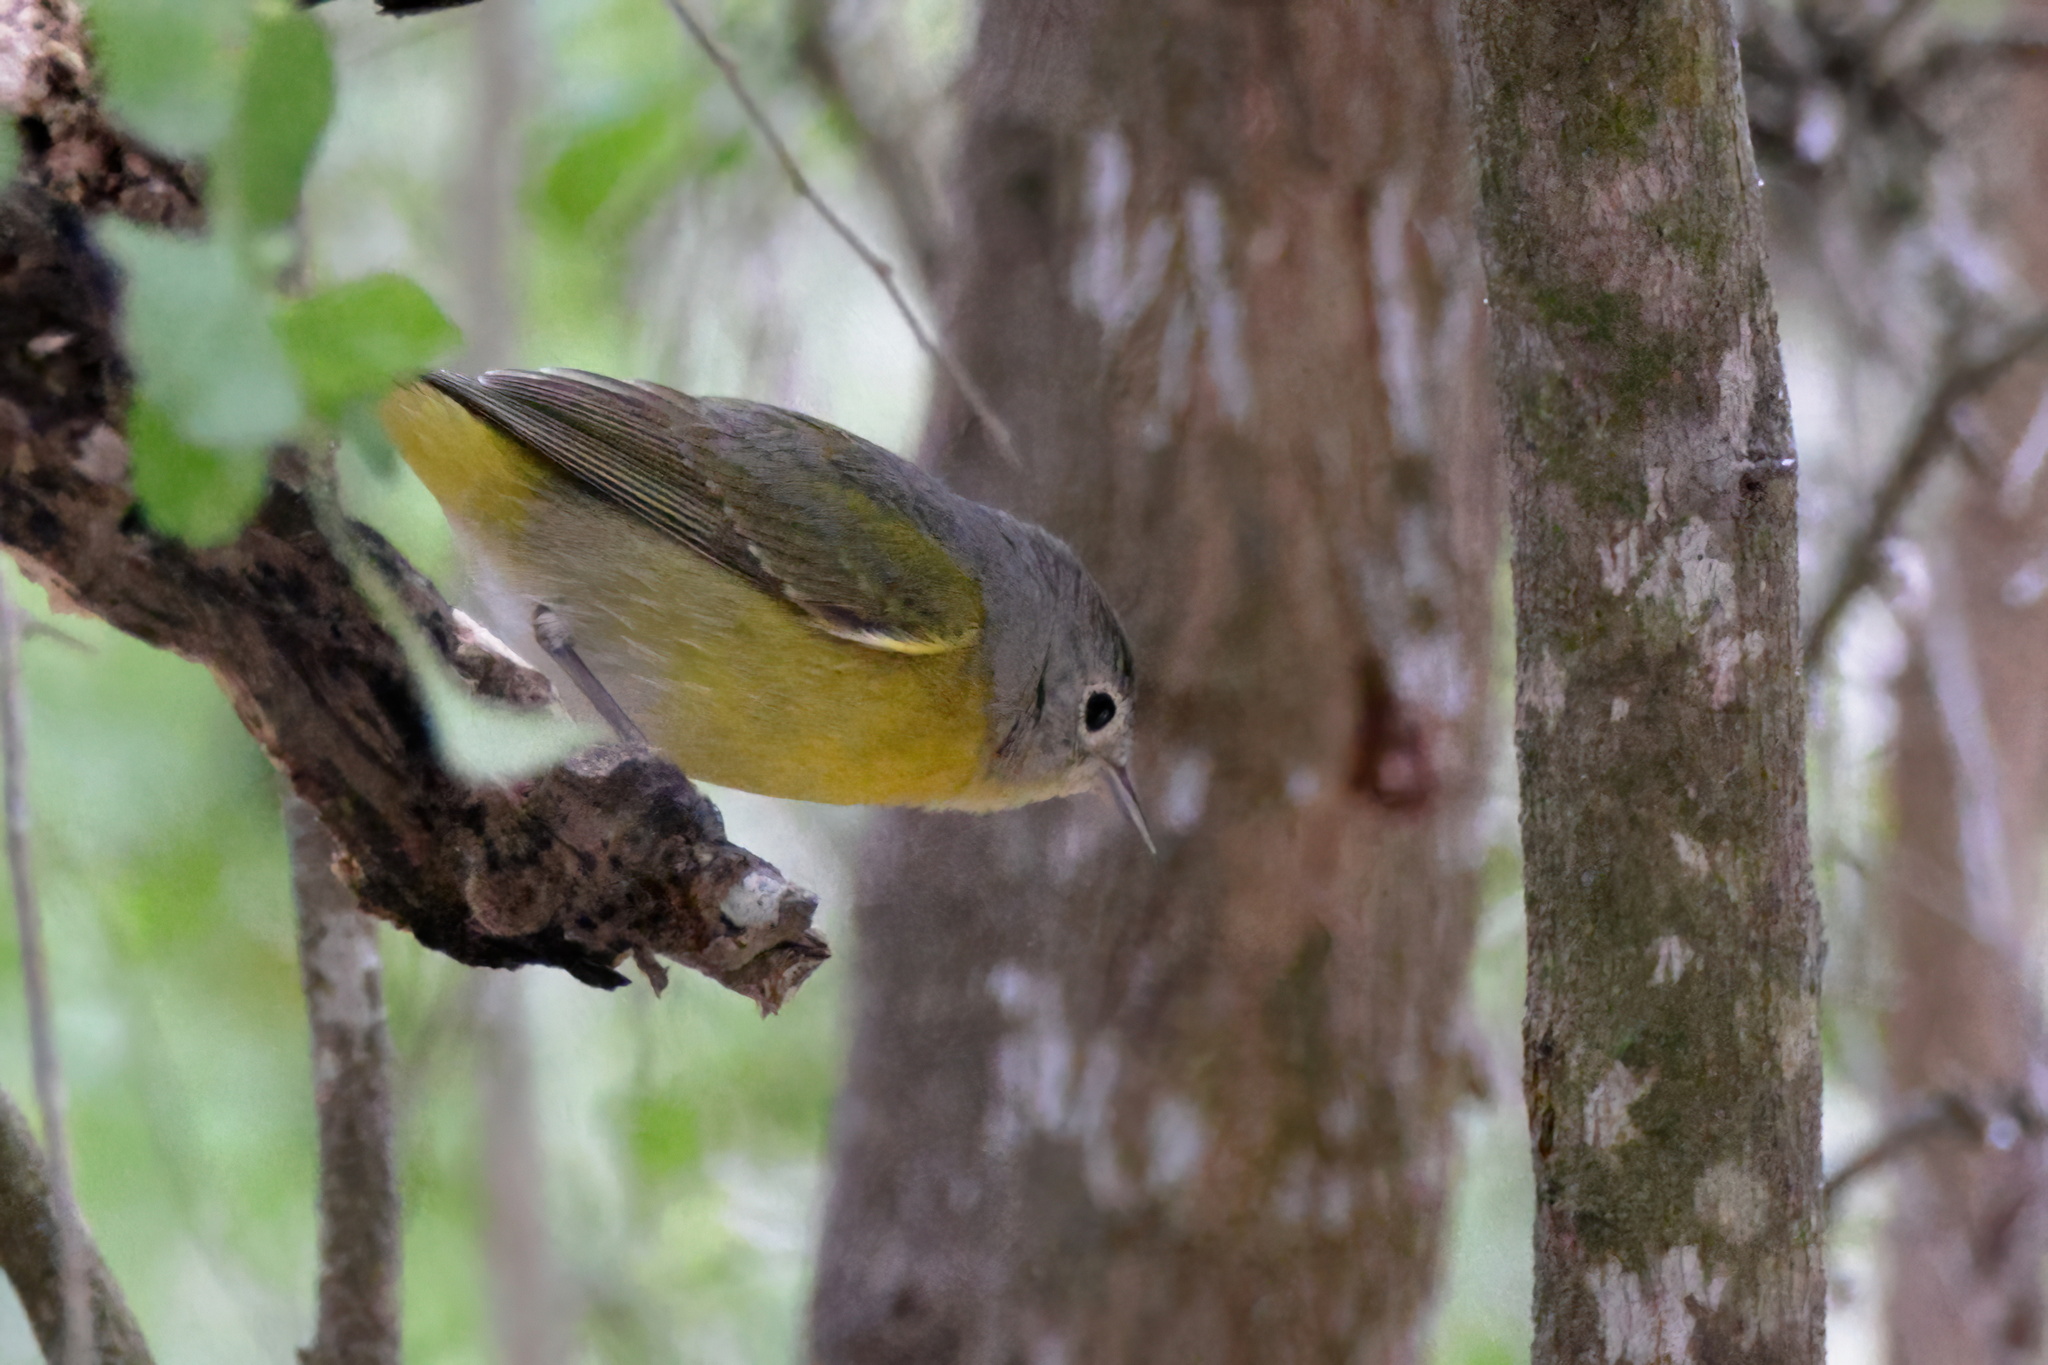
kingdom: Animalia
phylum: Chordata
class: Aves
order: Passeriformes
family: Parulidae
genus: Leiothlypis
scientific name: Leiothlypis ruficapilla
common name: Nashville warbler
